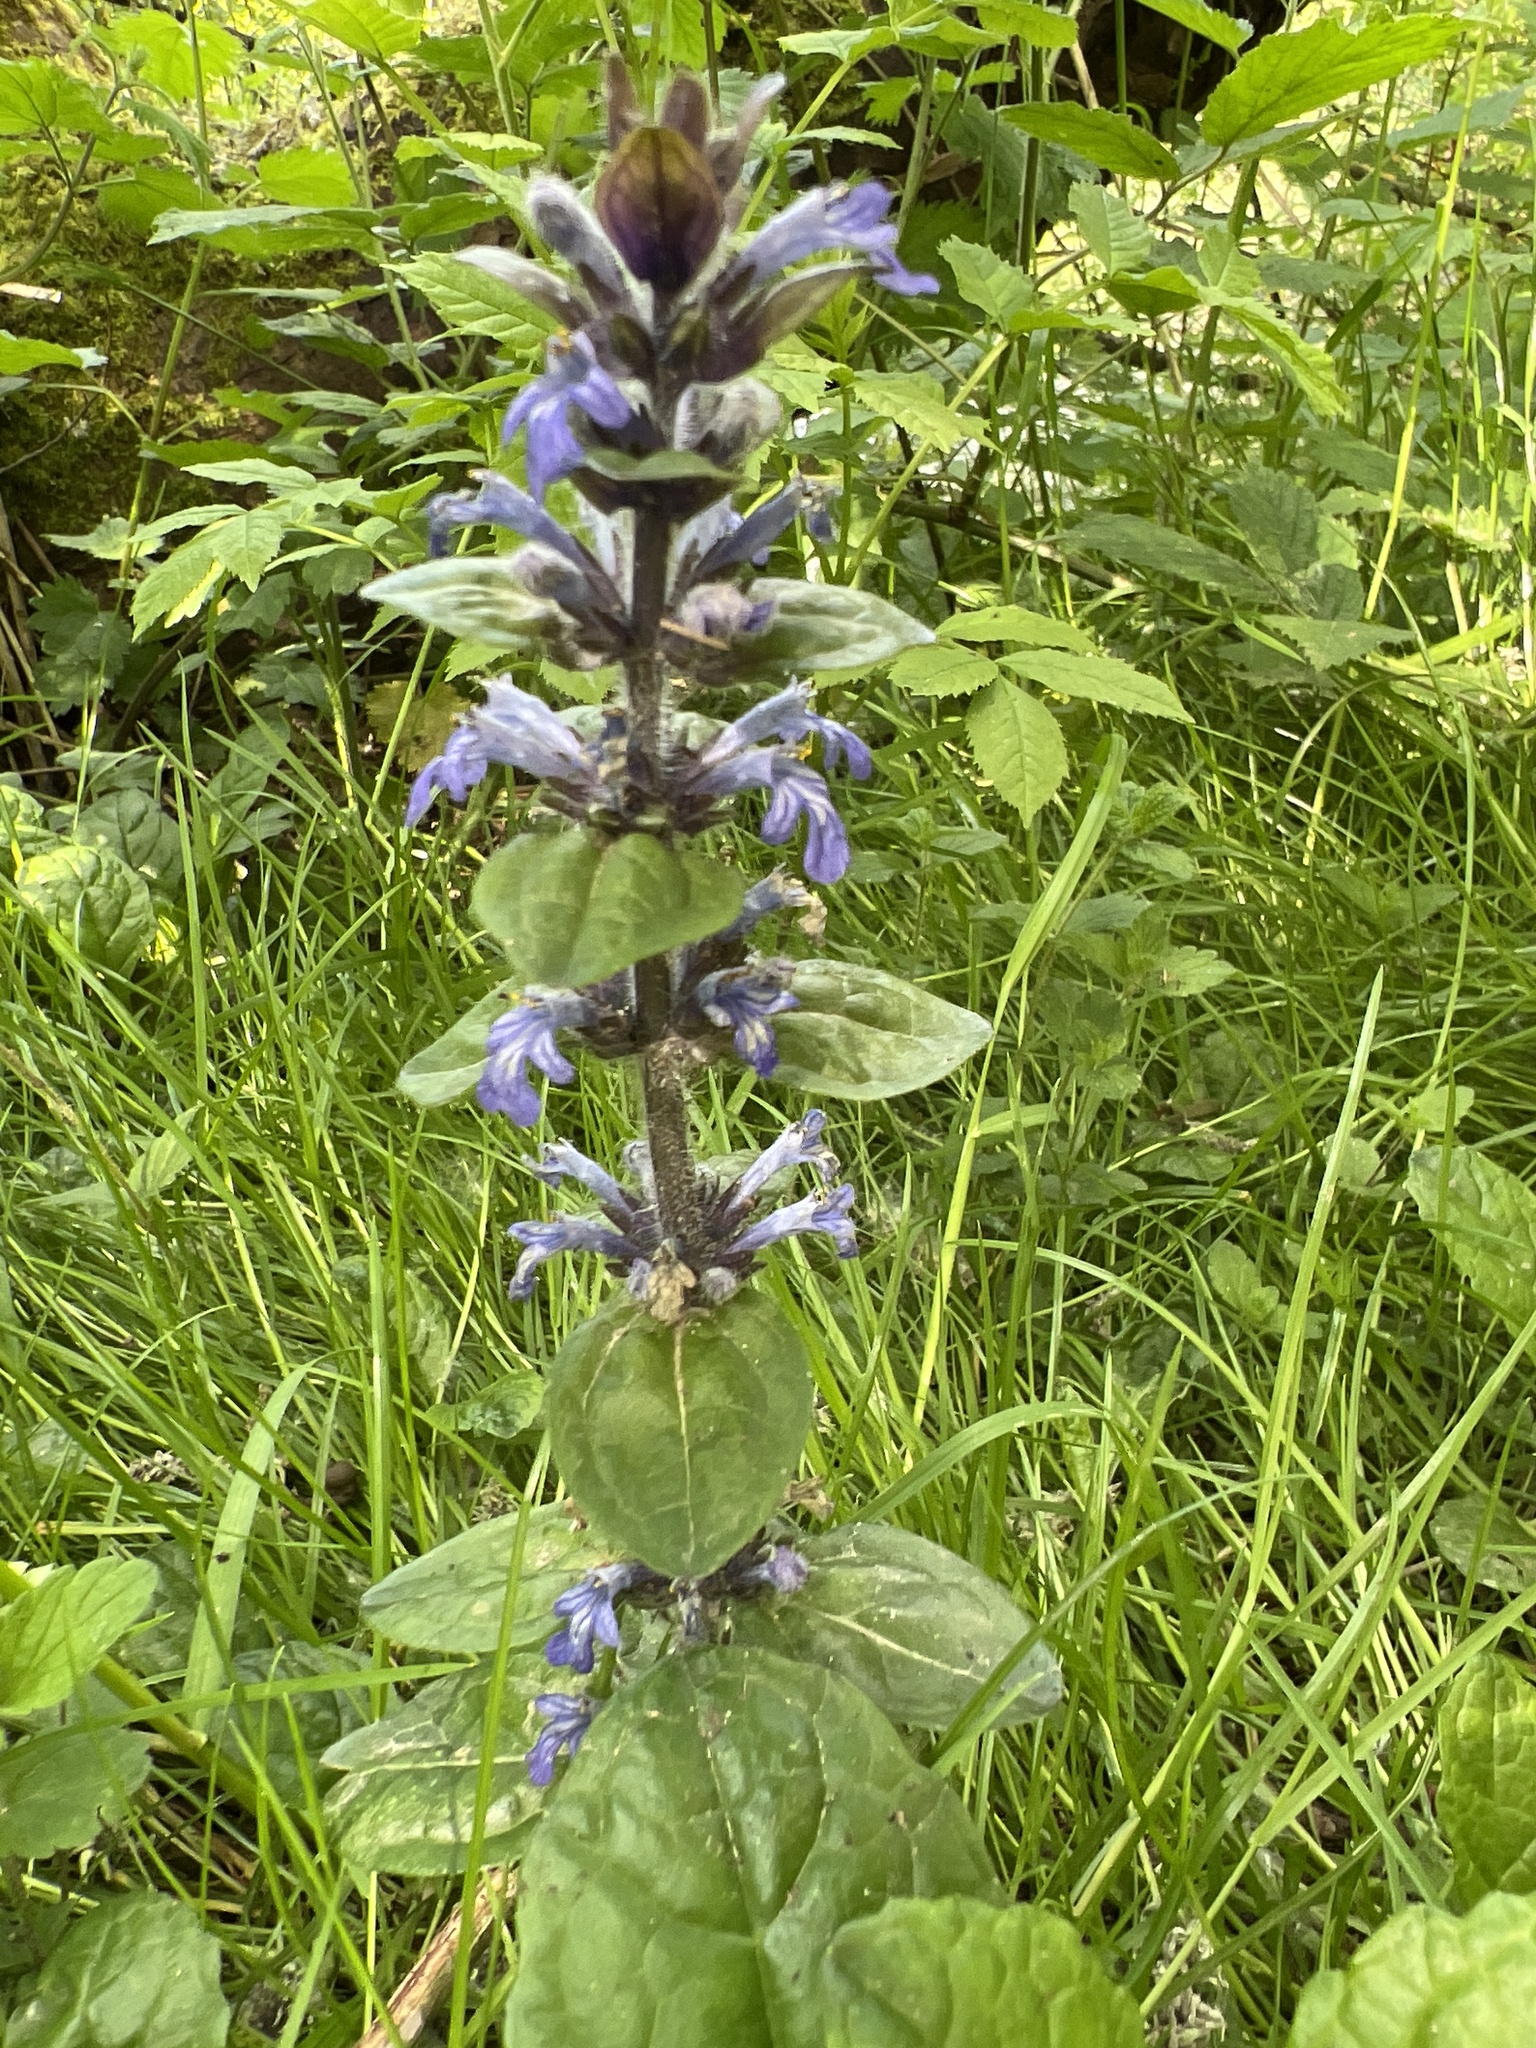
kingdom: Plantae
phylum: Tracheophyta
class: Magnoliopsida
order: Lamiales
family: Lamiaceae
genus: Ajuga
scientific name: Ajuga reptans
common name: Bugle
